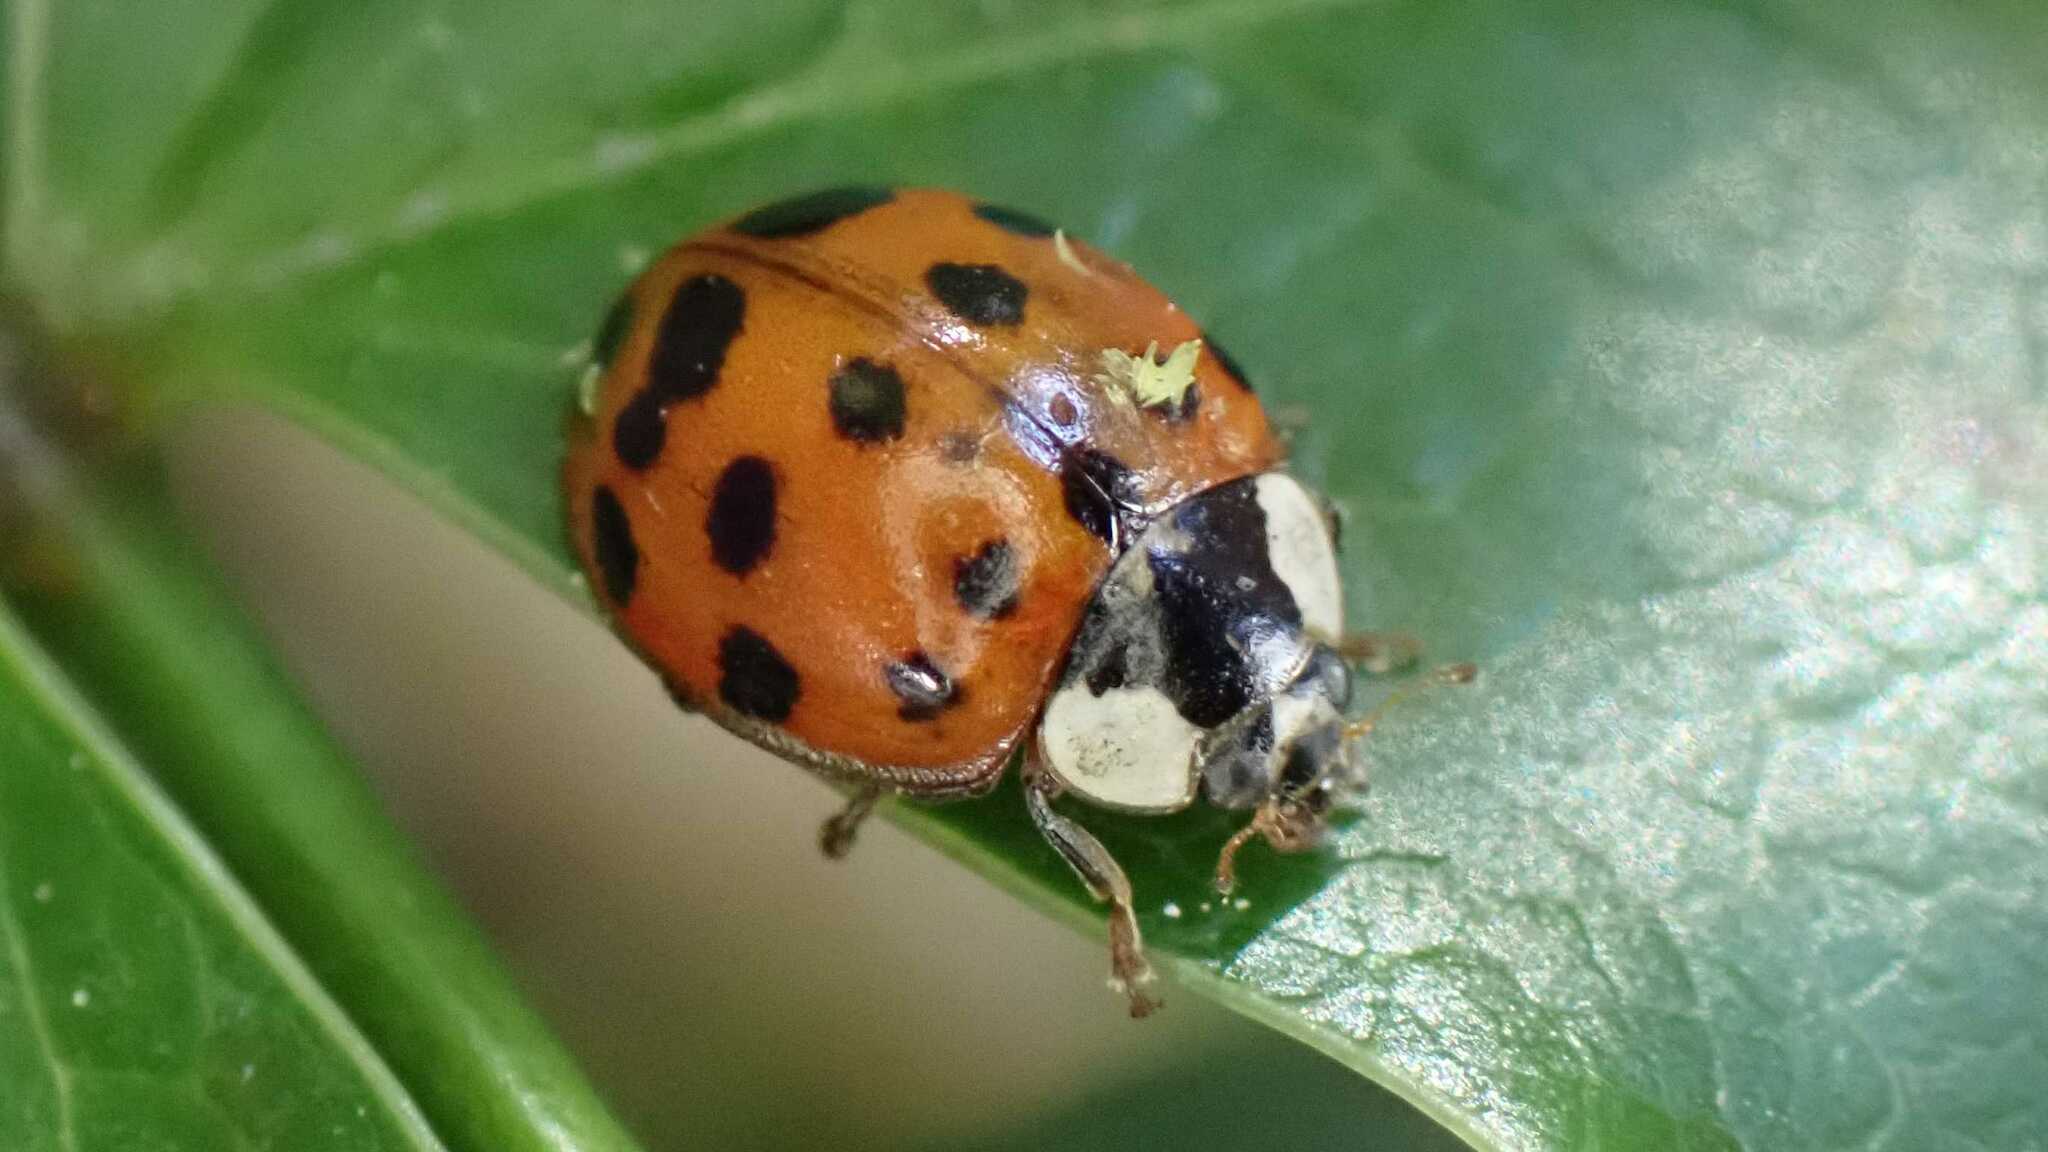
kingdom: Animalia
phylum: Arthropoda
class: Insecta
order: Coleoptera
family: Coccinellidae
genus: Harmonia
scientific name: Harmonia axyridis
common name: Harlequin ladybird
